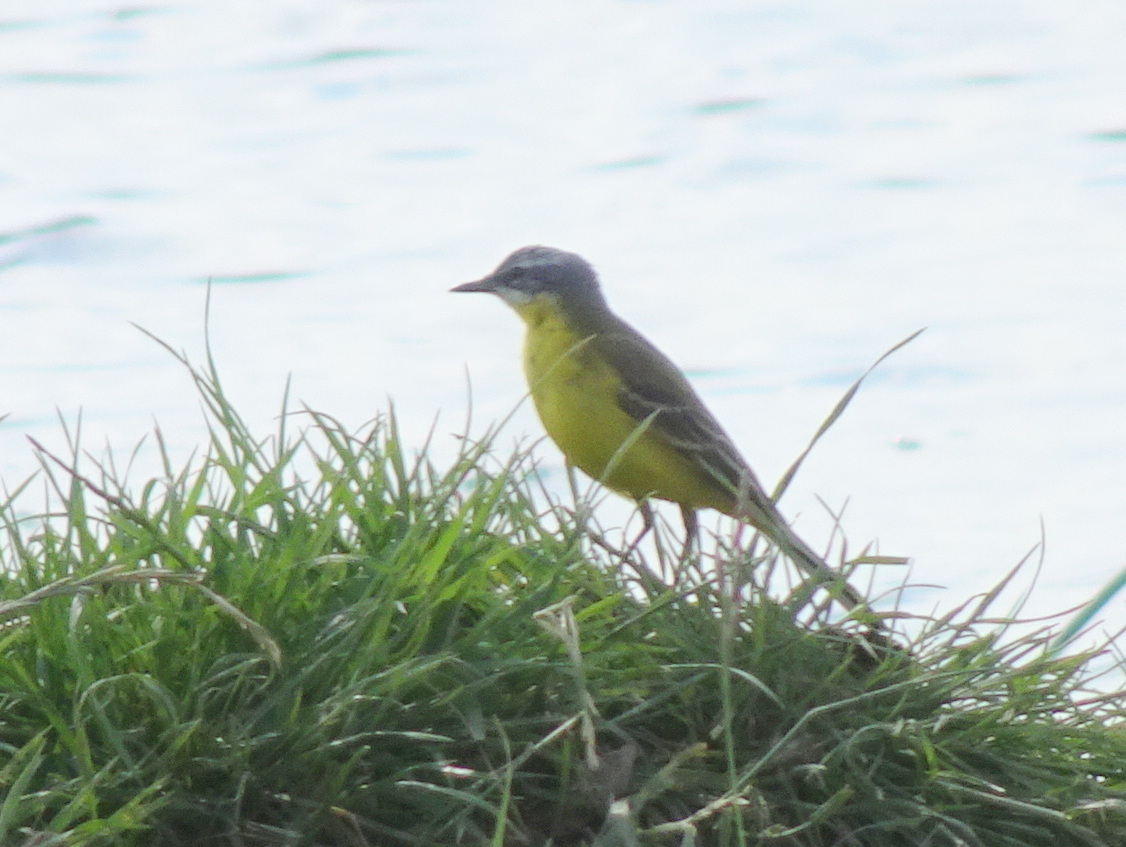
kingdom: Animalia
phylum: Chordata
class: Aves
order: Passeriformes
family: Motacillidae
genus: Motacilla
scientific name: Motacilla flava
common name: Western yellow wagtail
